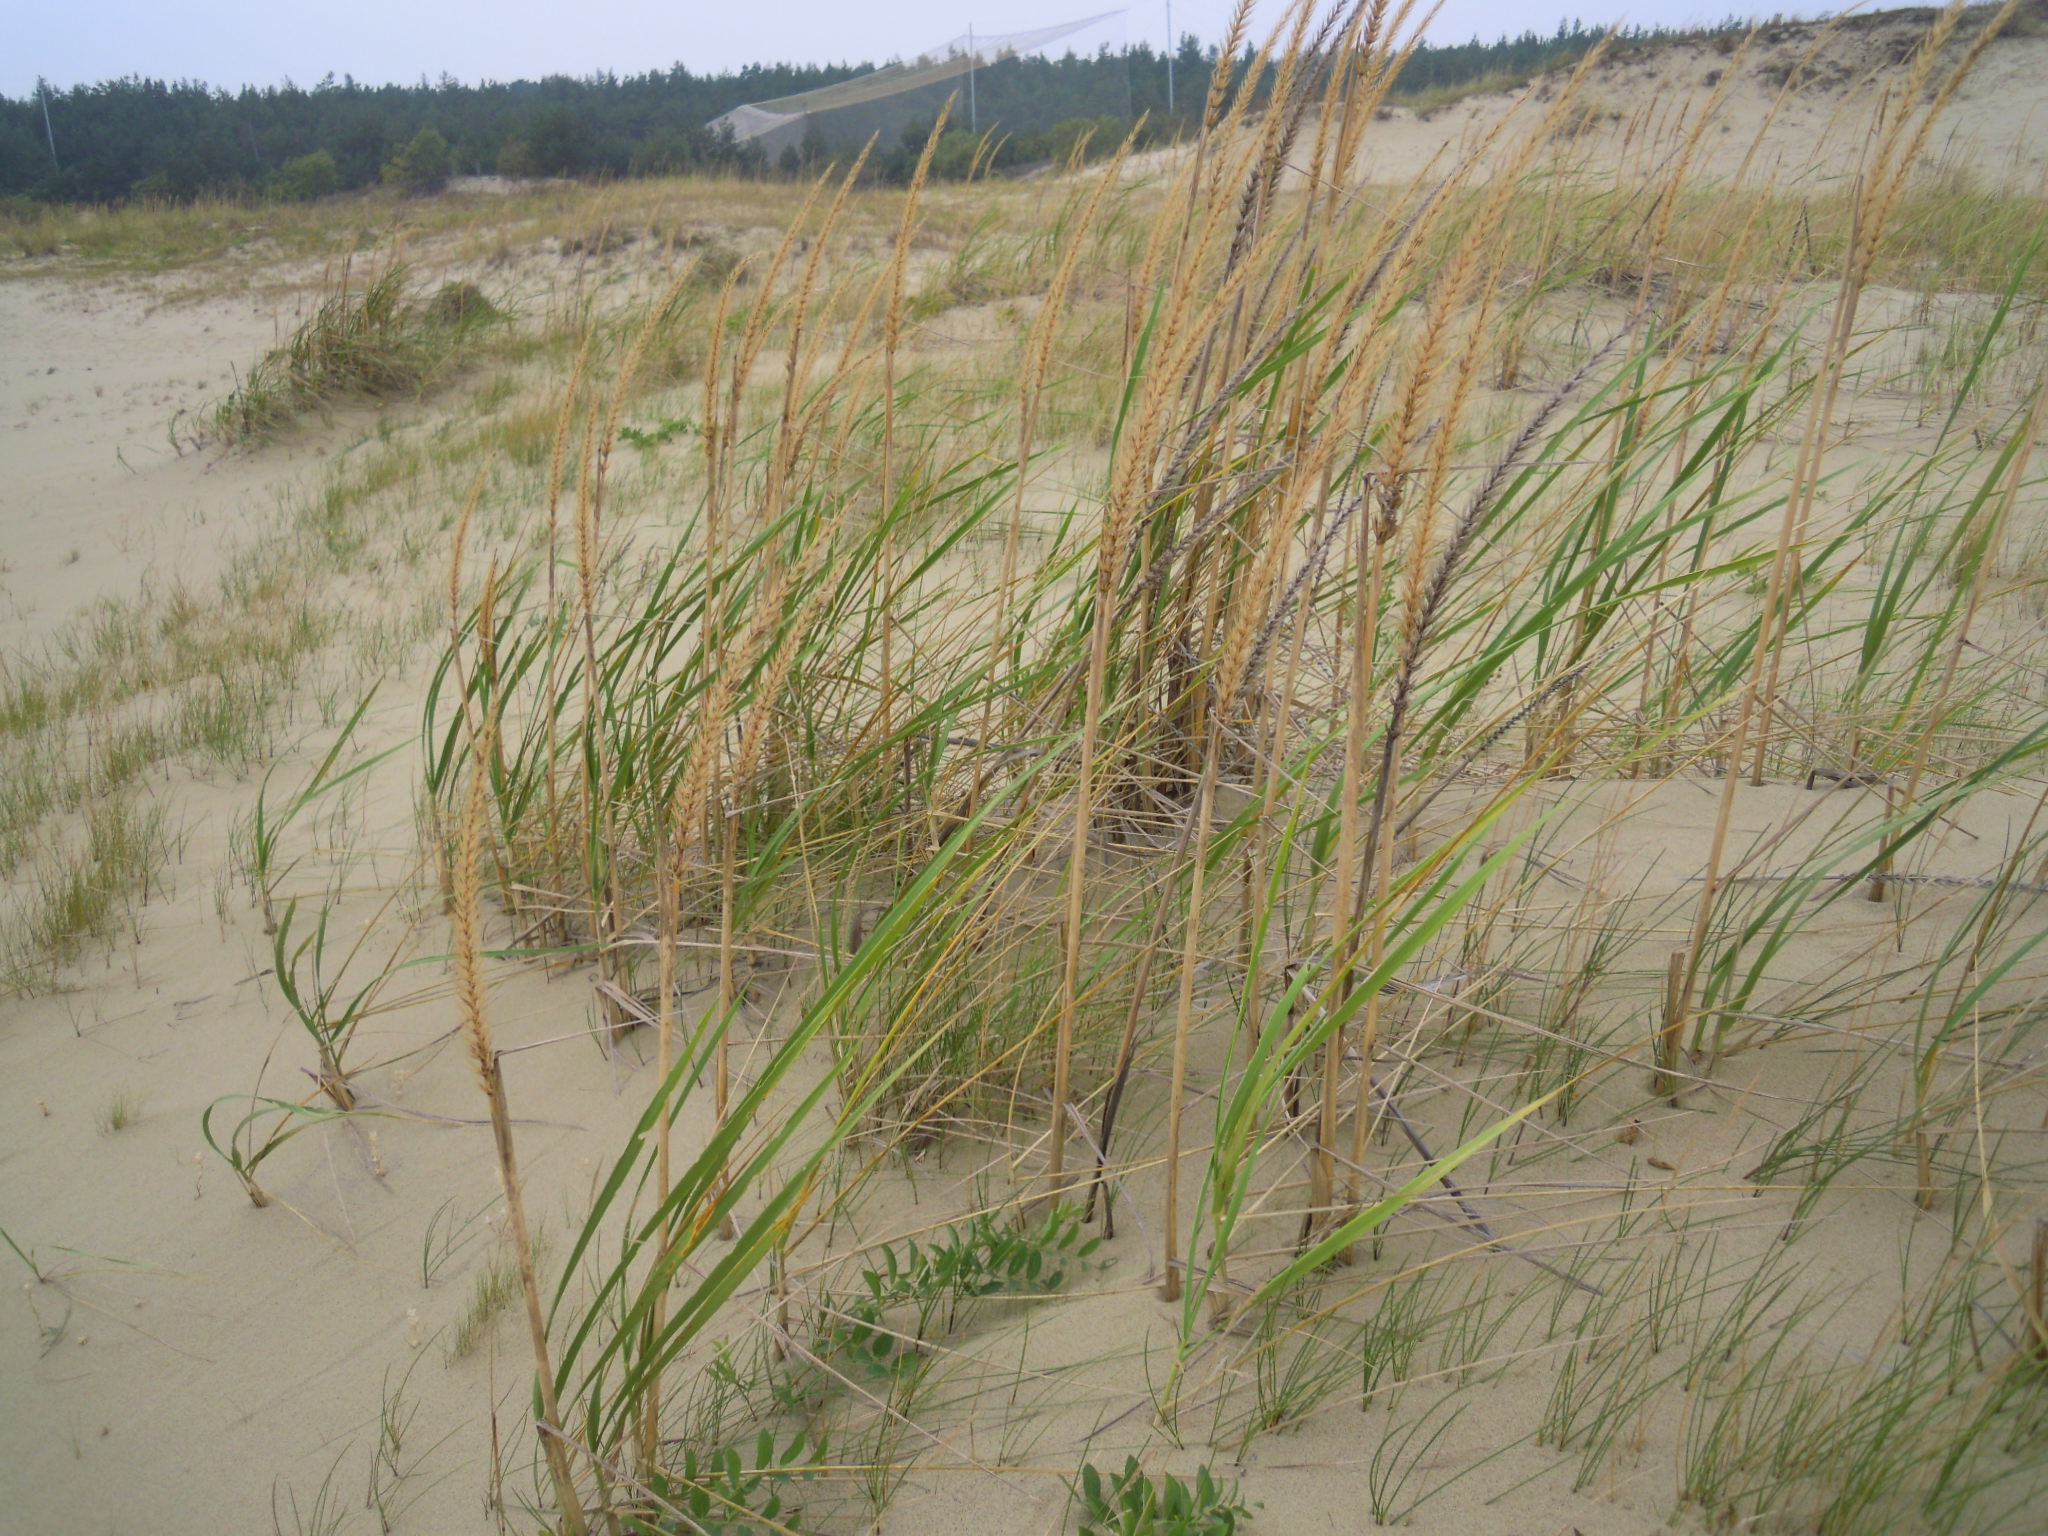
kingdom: Plantae
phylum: Tracheophyta
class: Liliopsida
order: Poales
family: Poaceae
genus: Leymus
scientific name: Leymus arenarius
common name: Lyme-grass
